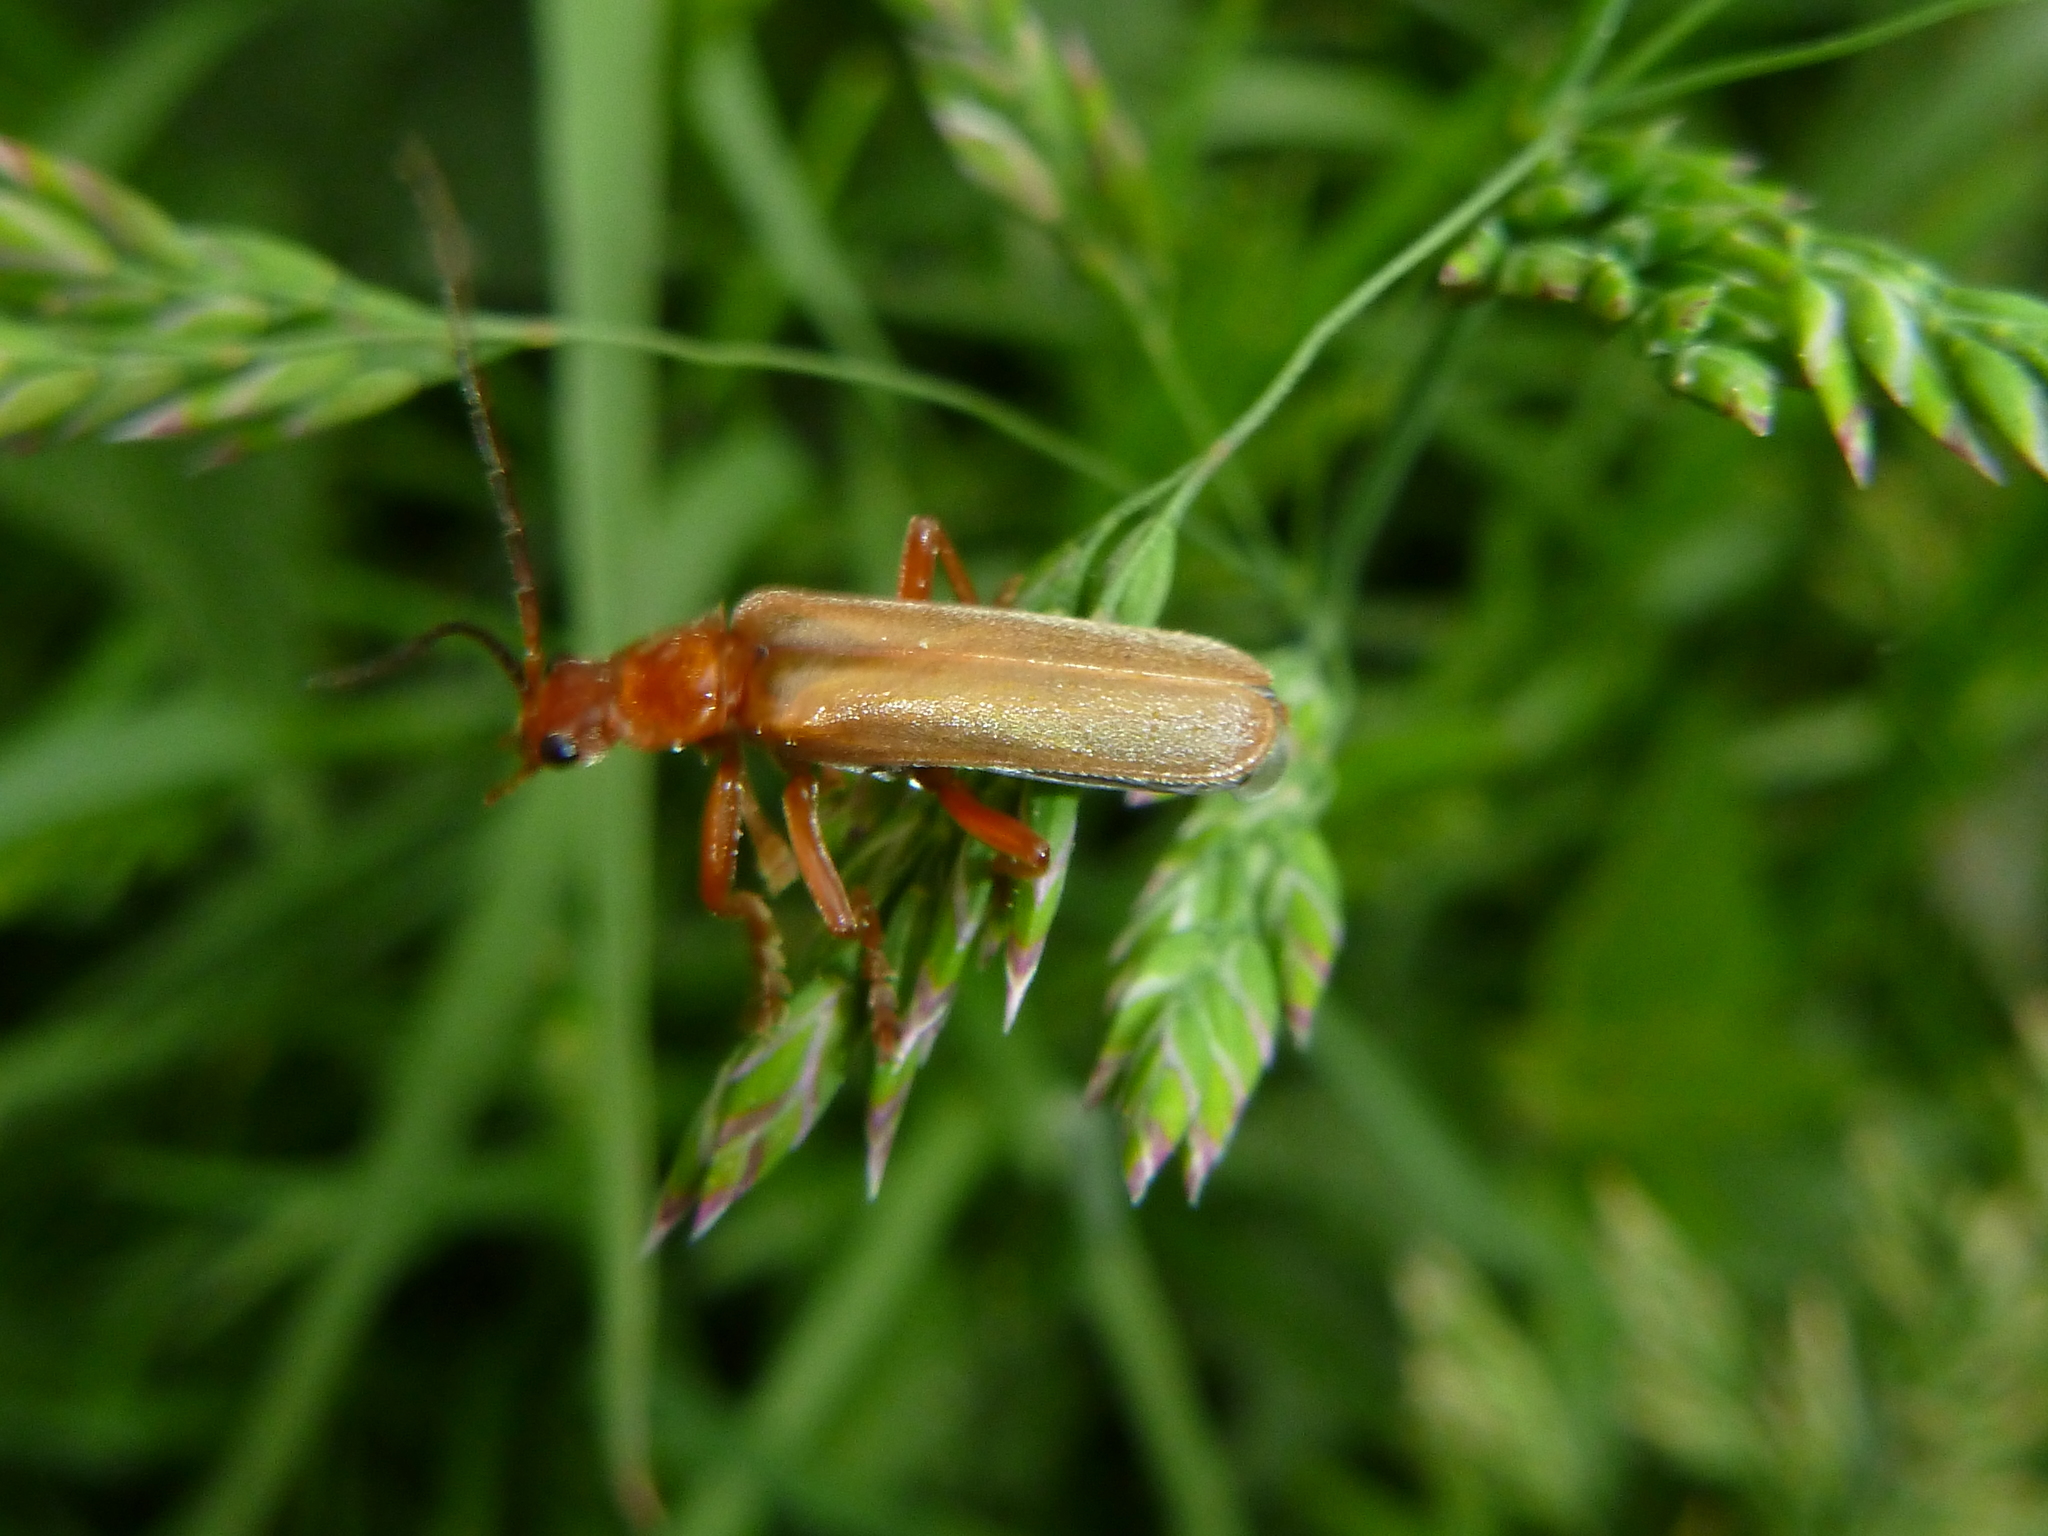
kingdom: Animalia
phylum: Arthropoda
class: Insecta
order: Coleoptera
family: Cantharidae
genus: Cantharis
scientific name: Cantharis rufa
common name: Red-spotted soldier beetle
